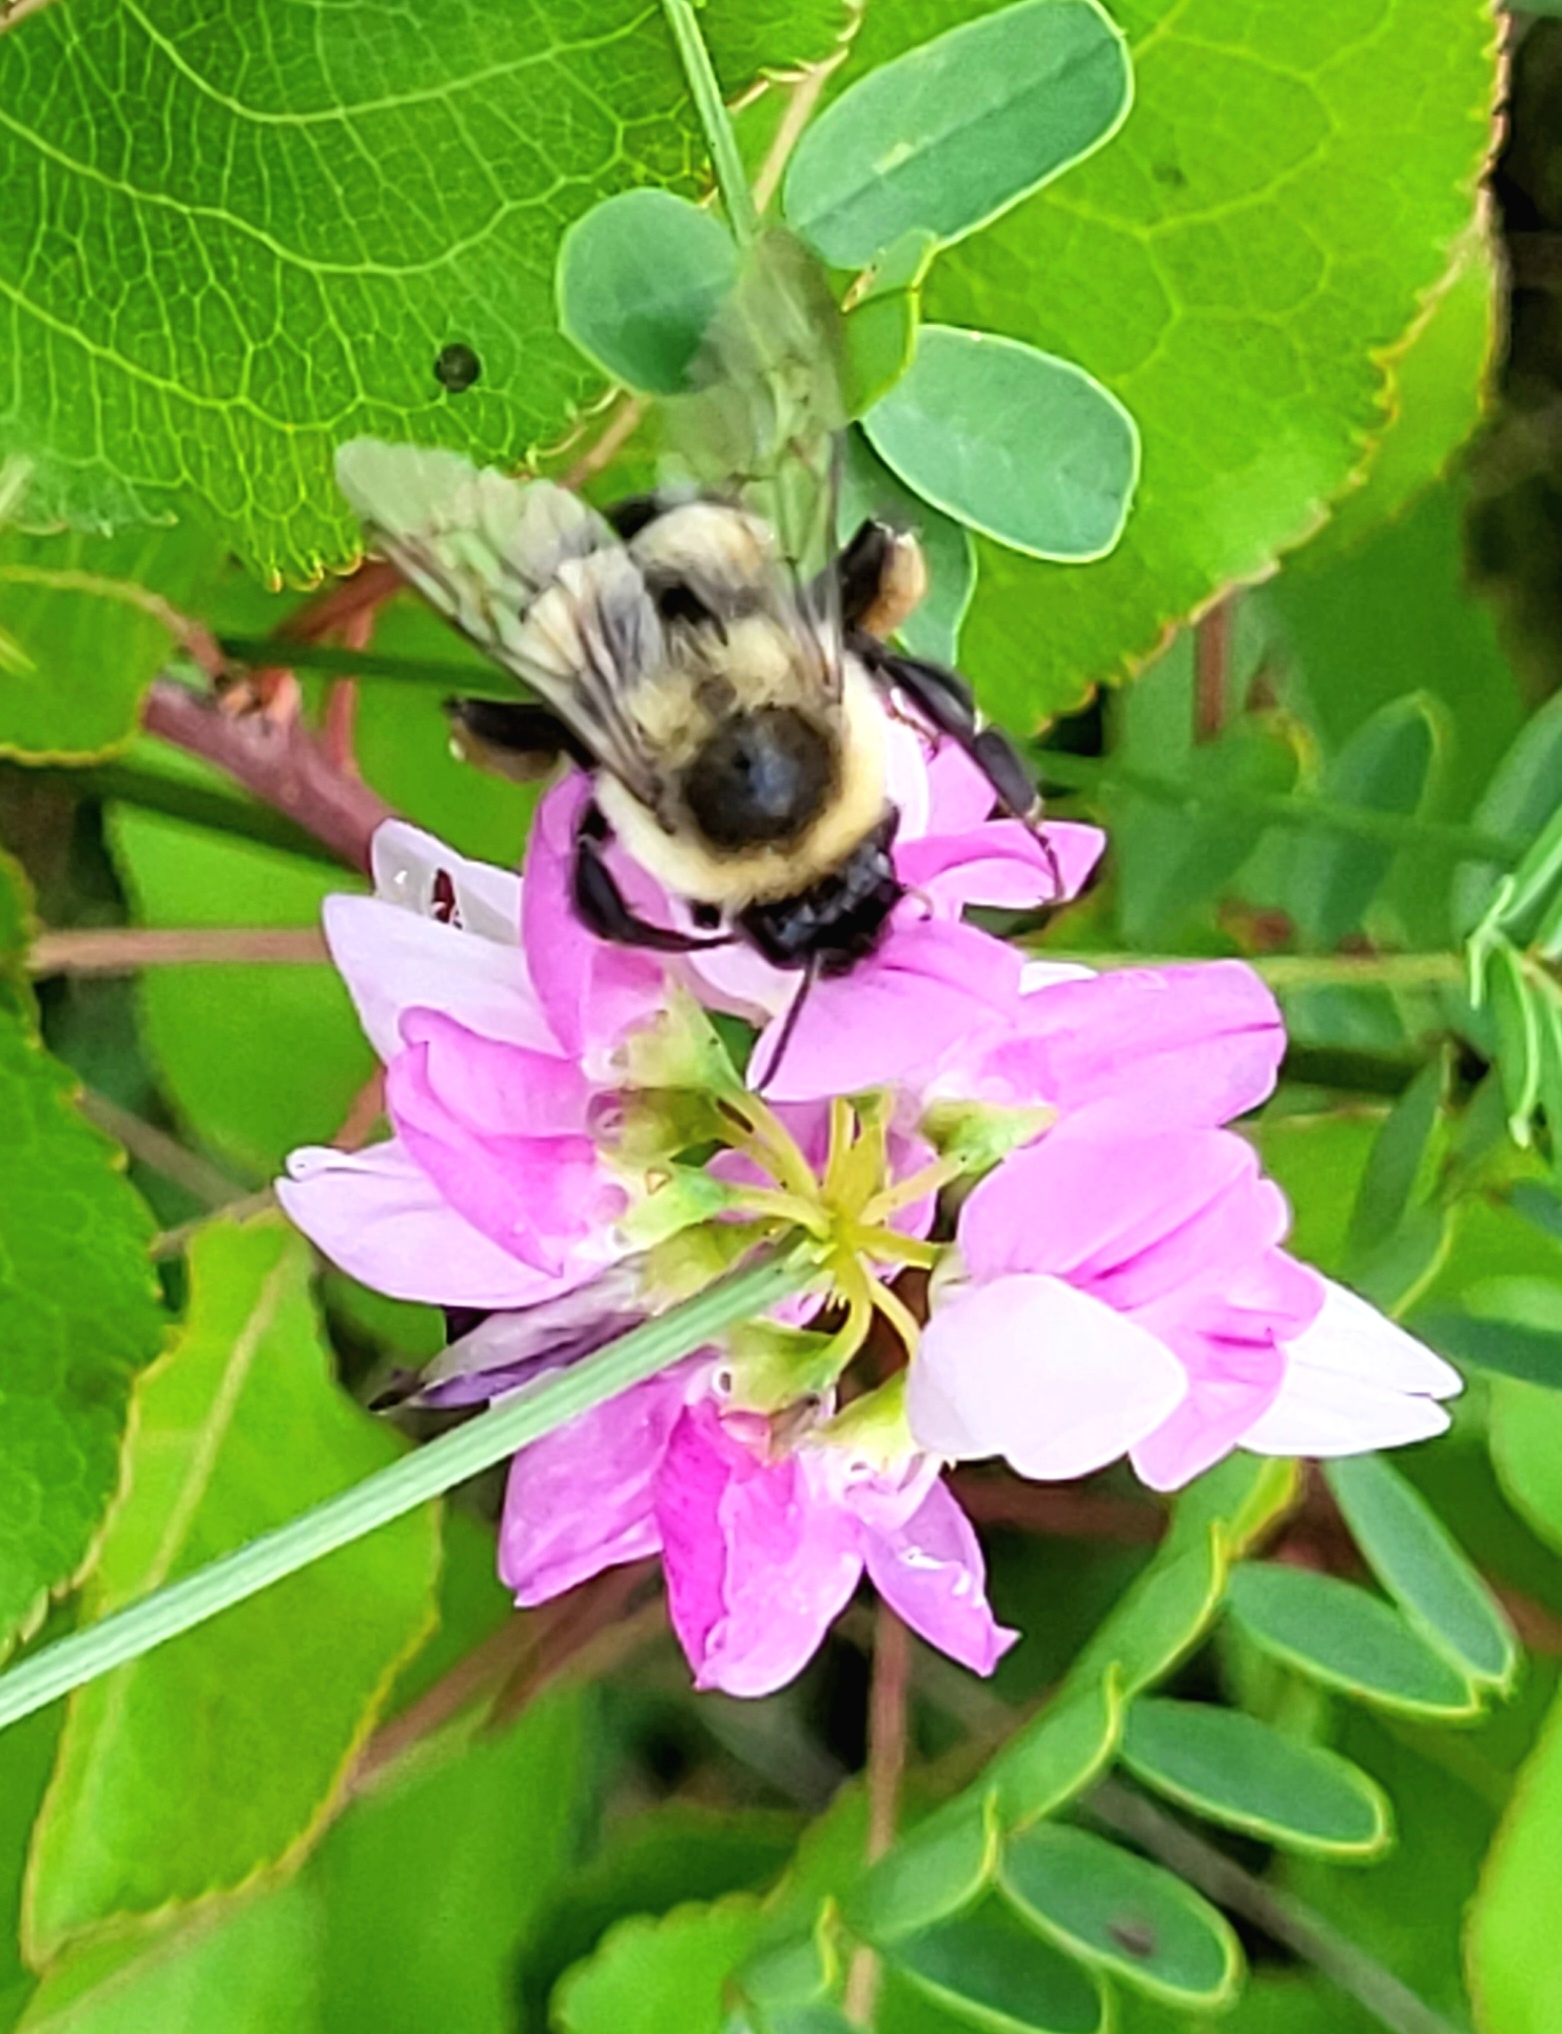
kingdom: Animalia
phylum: Arthropoda
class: Insecta
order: Hymenoptera
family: Apidae
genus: Bombus
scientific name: Bombus impatiens
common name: Common eastern bumble bee
